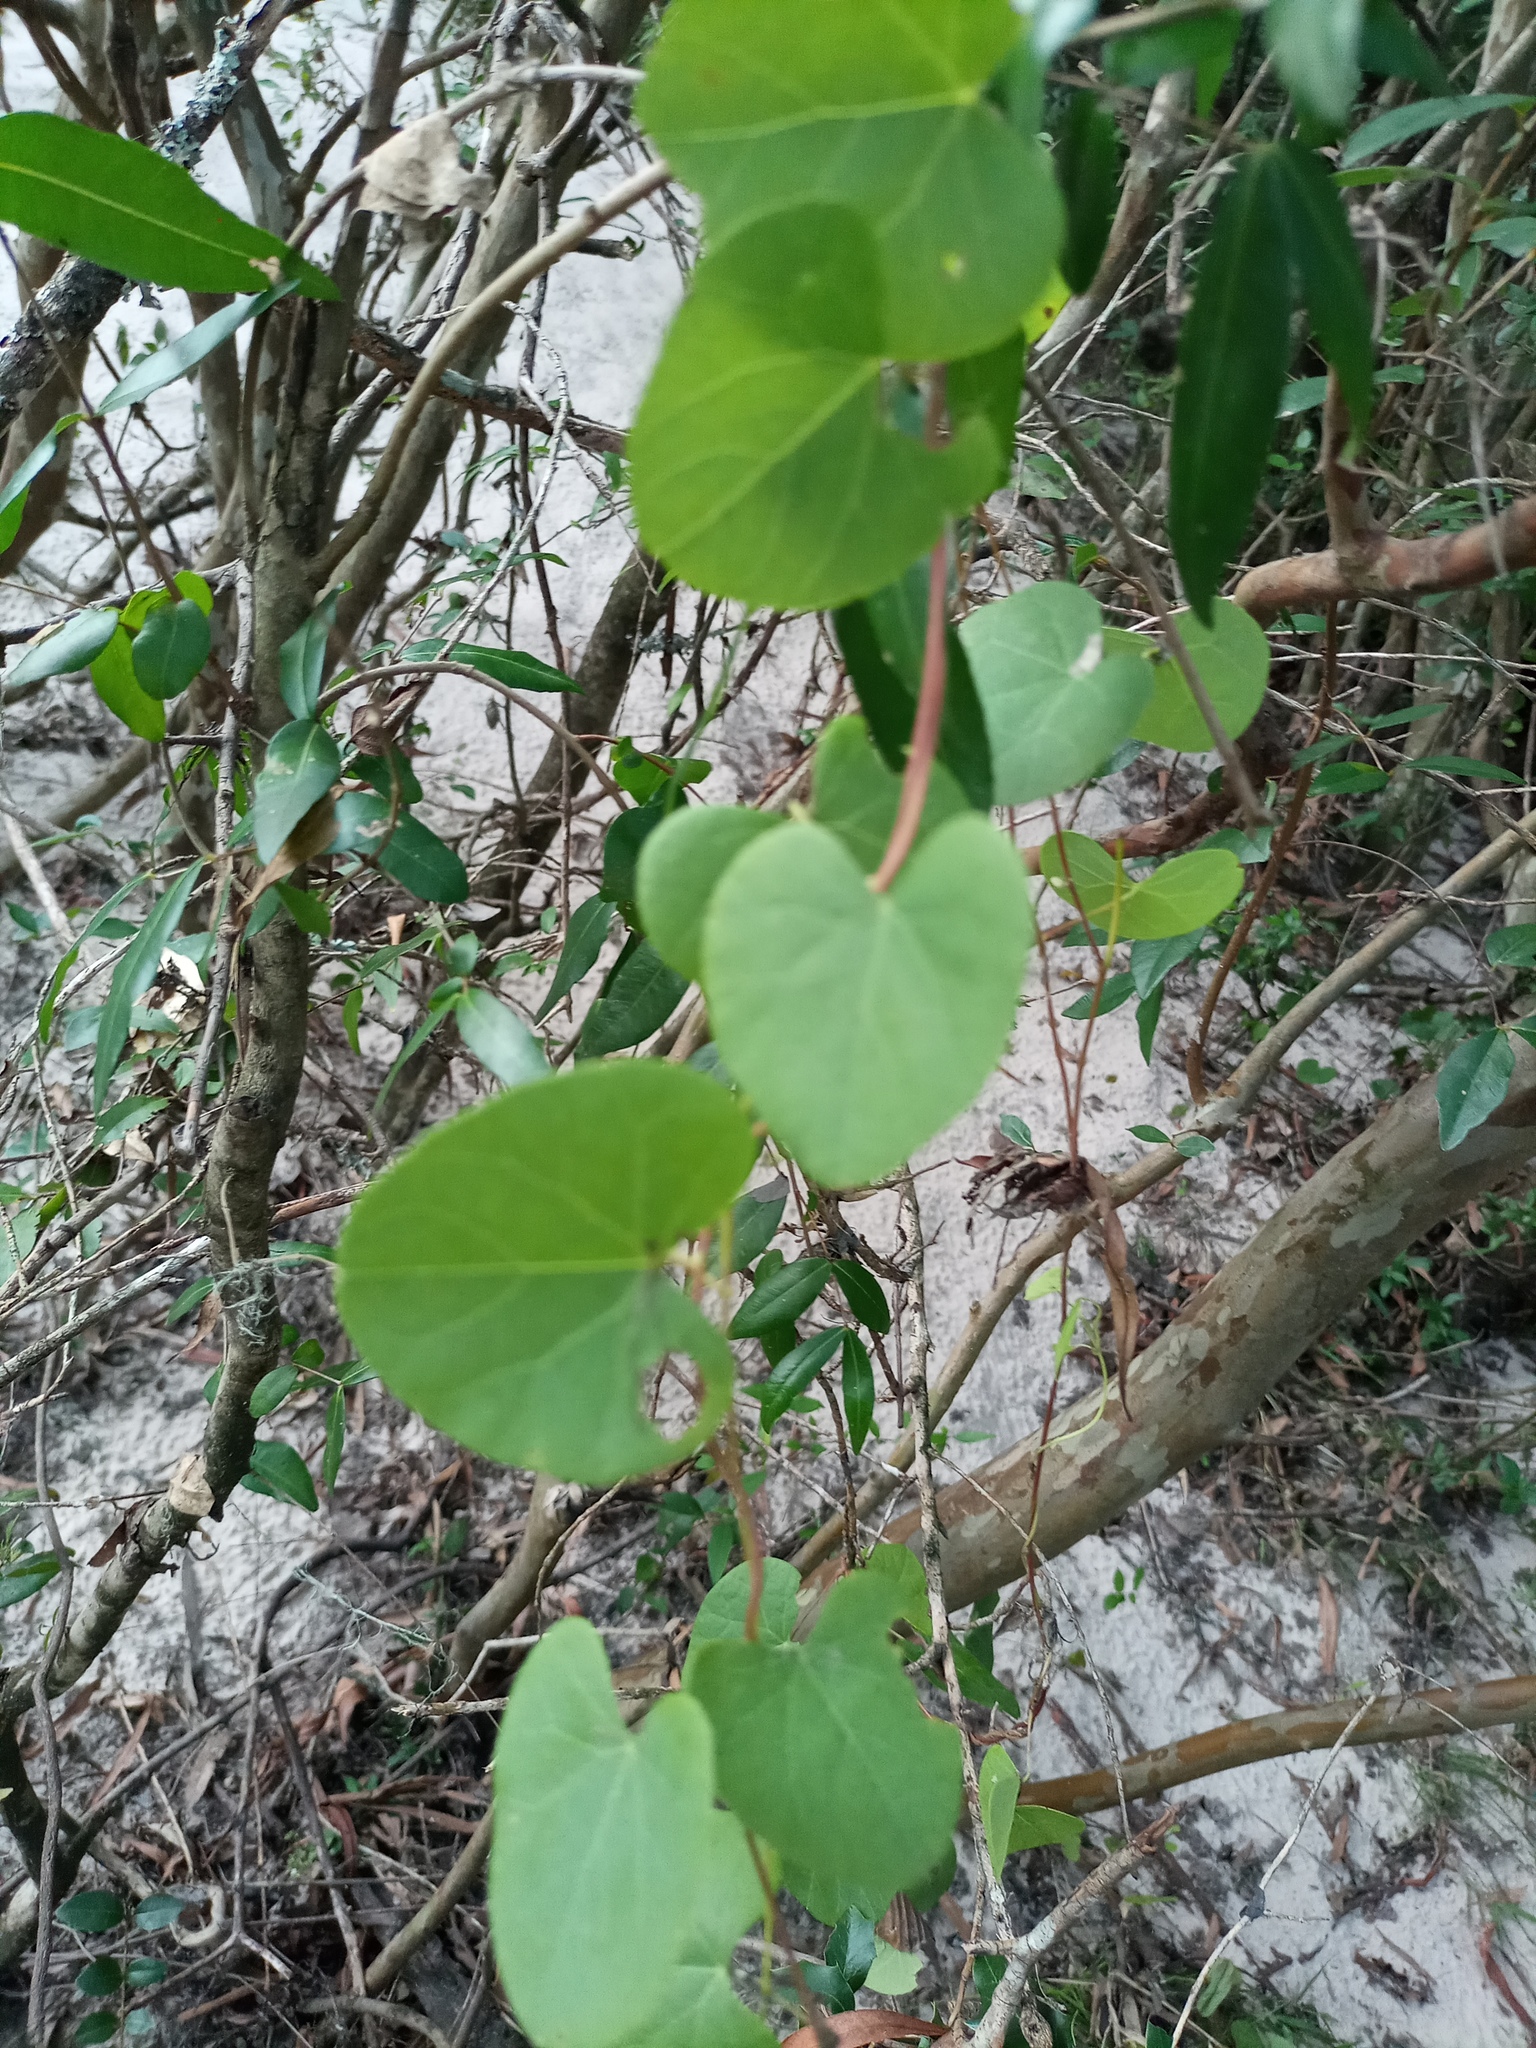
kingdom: Plantae
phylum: Tracheophyta
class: Magnoliopsida
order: Ranunculales
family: Menispermaceae
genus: Cissampelos
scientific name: Cissampelos pareira
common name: Velvetleaf
